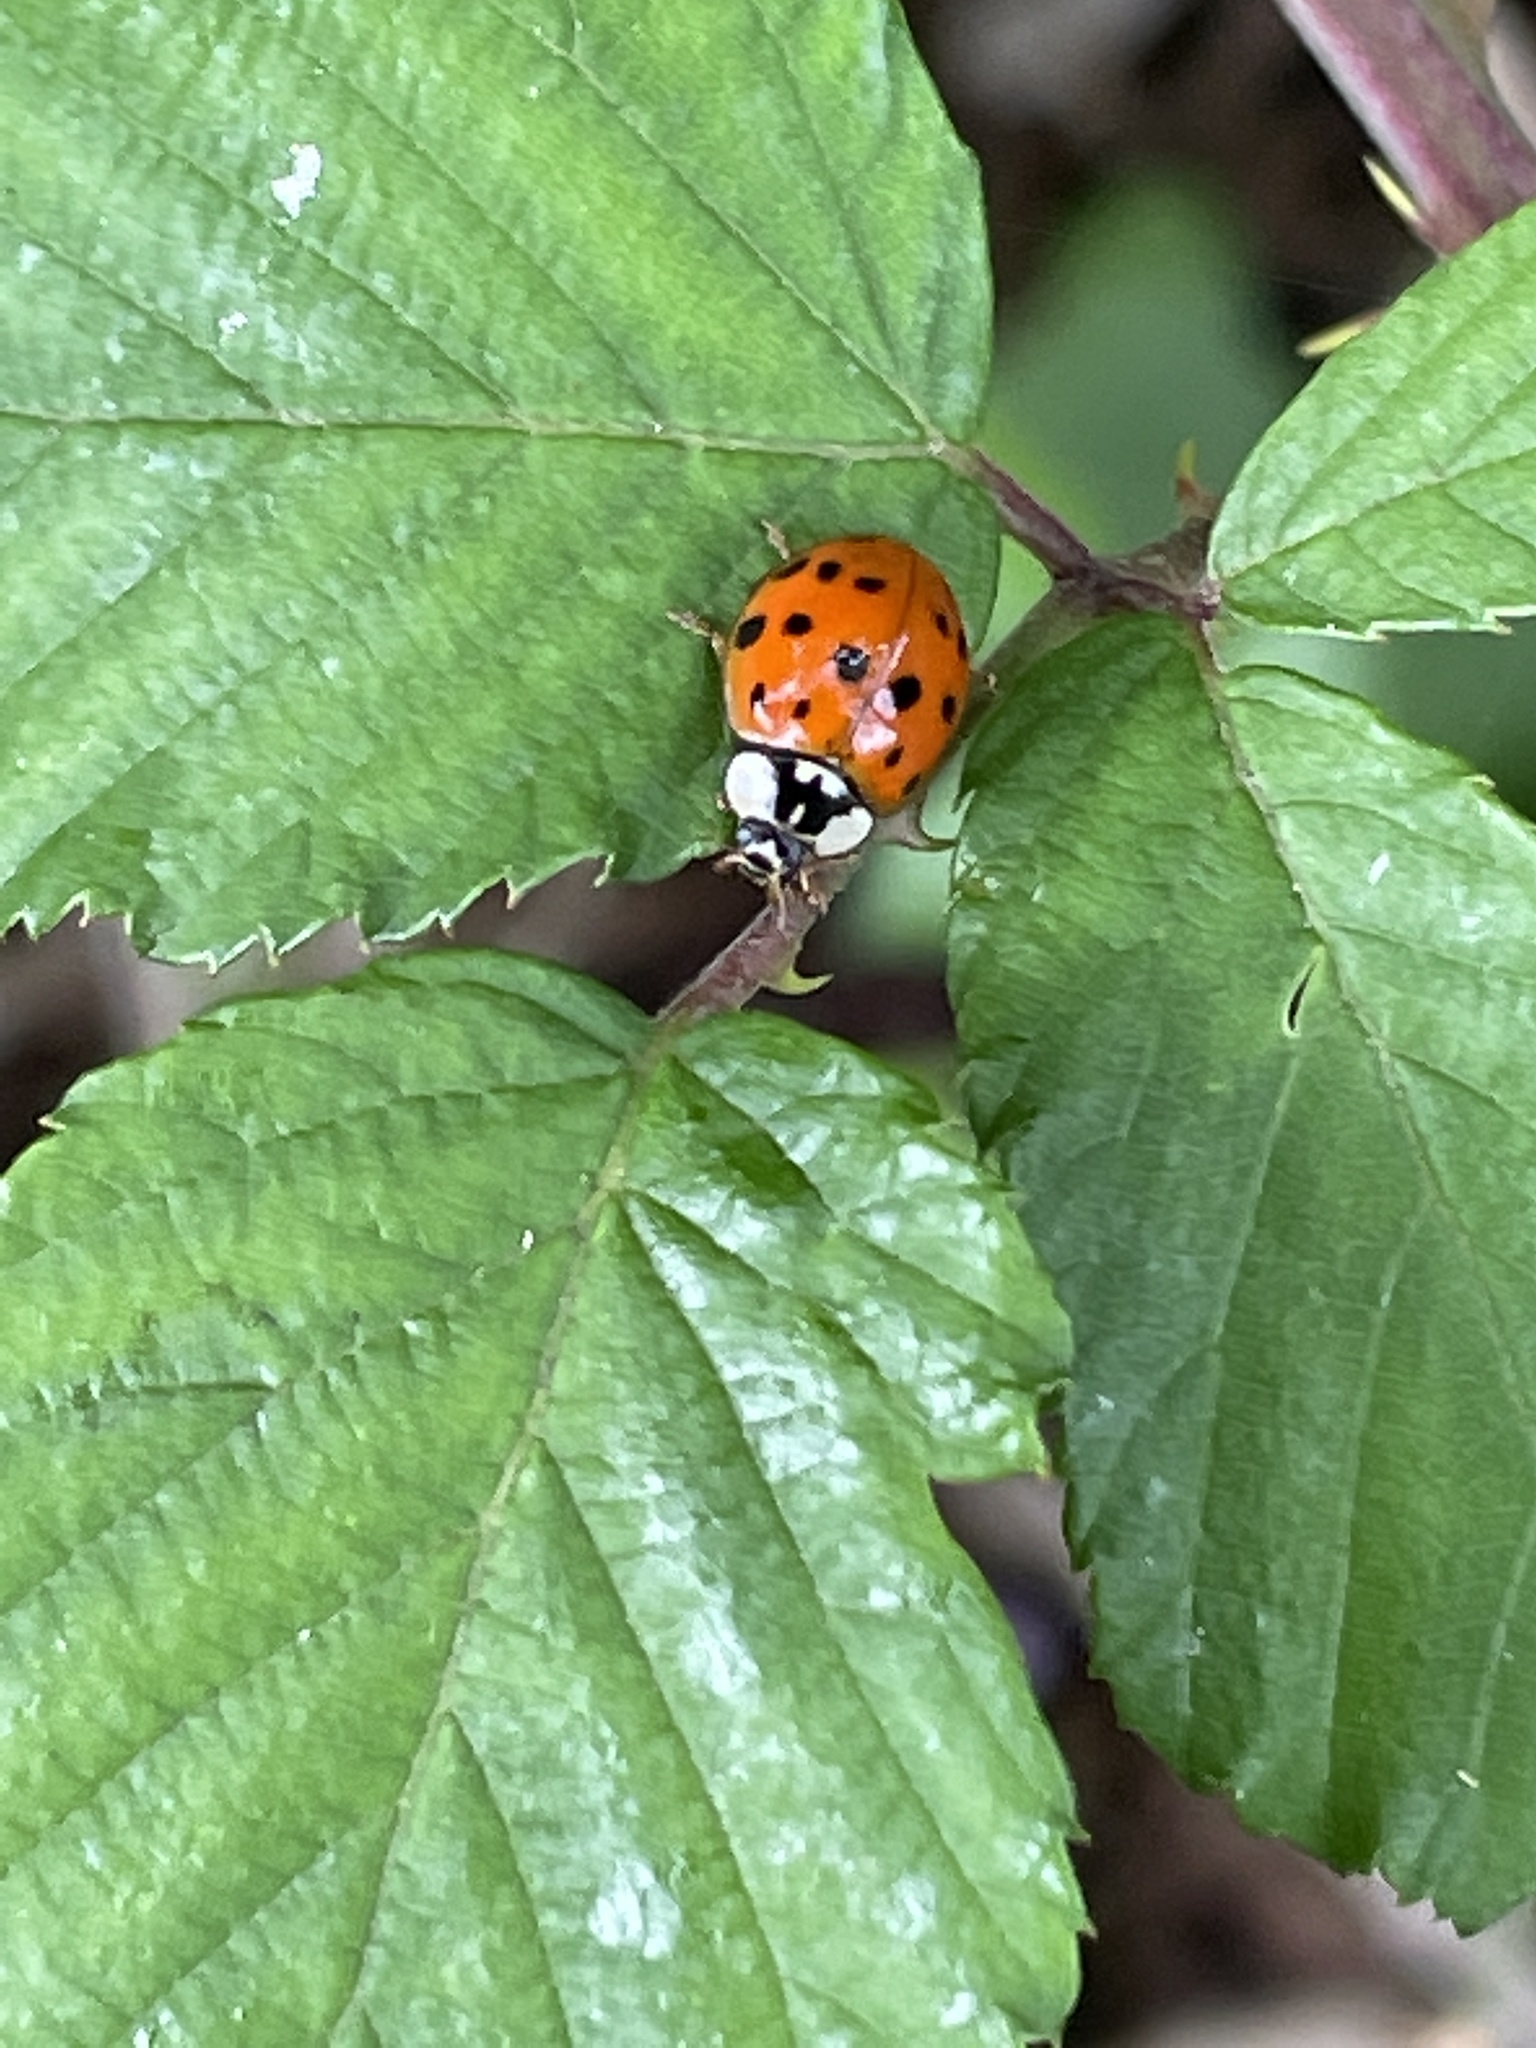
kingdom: Animalia
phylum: Arthropoda
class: Insecta
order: Coleoptera
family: Coccinellidae
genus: Harmonia
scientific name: Harmonia axyridis
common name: Harlequin ladybird
